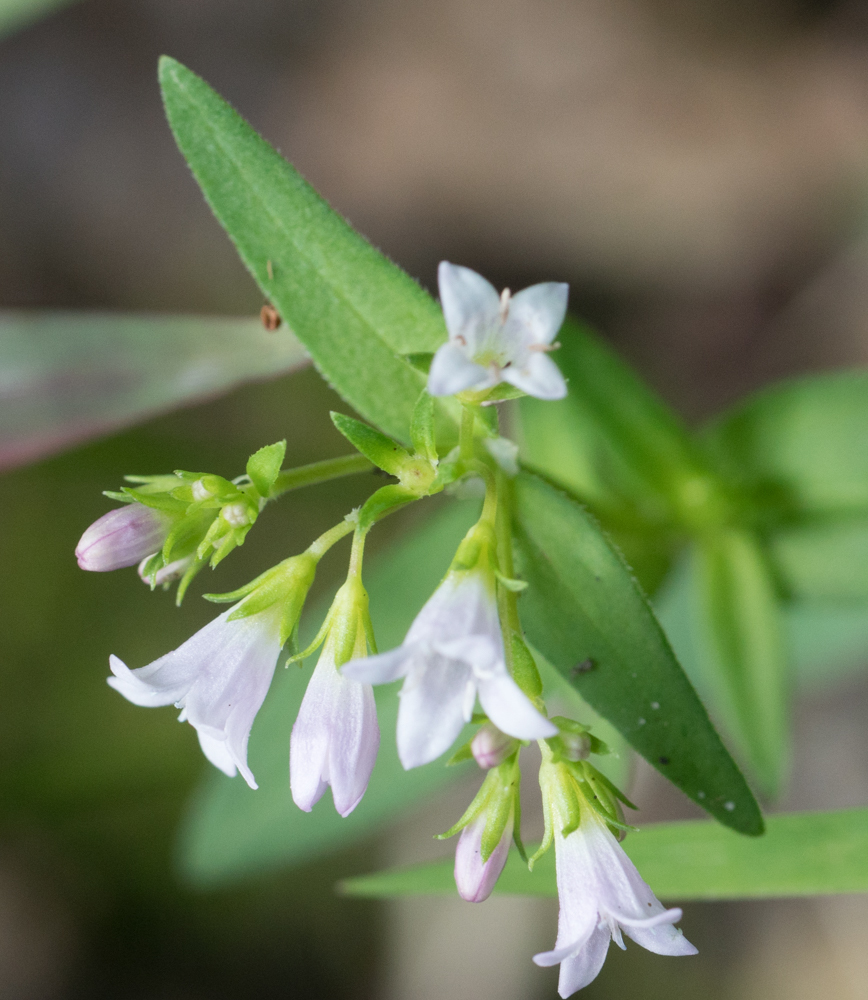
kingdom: Plantae
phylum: Tracheophyta
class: Magnoliopsida
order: Gentianales
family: Rubiaceae
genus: Houstonia
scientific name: Houstonia purpurea
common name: Summer bluet
